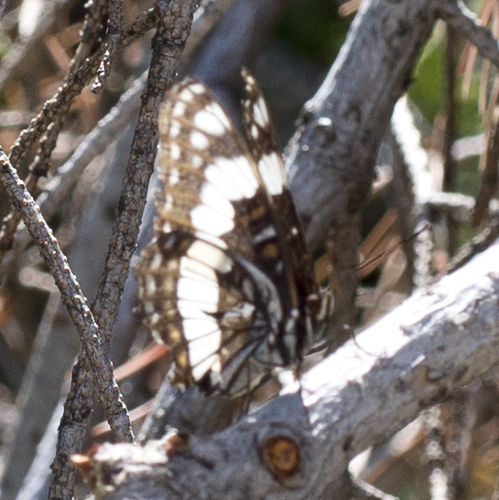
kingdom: Animalia
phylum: Arthropoda
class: Insecta
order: Lepidoptera
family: Nymphalidae
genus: Limenitis
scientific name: Limenitis weidemeyerii
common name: Weidemeyer's admiral
